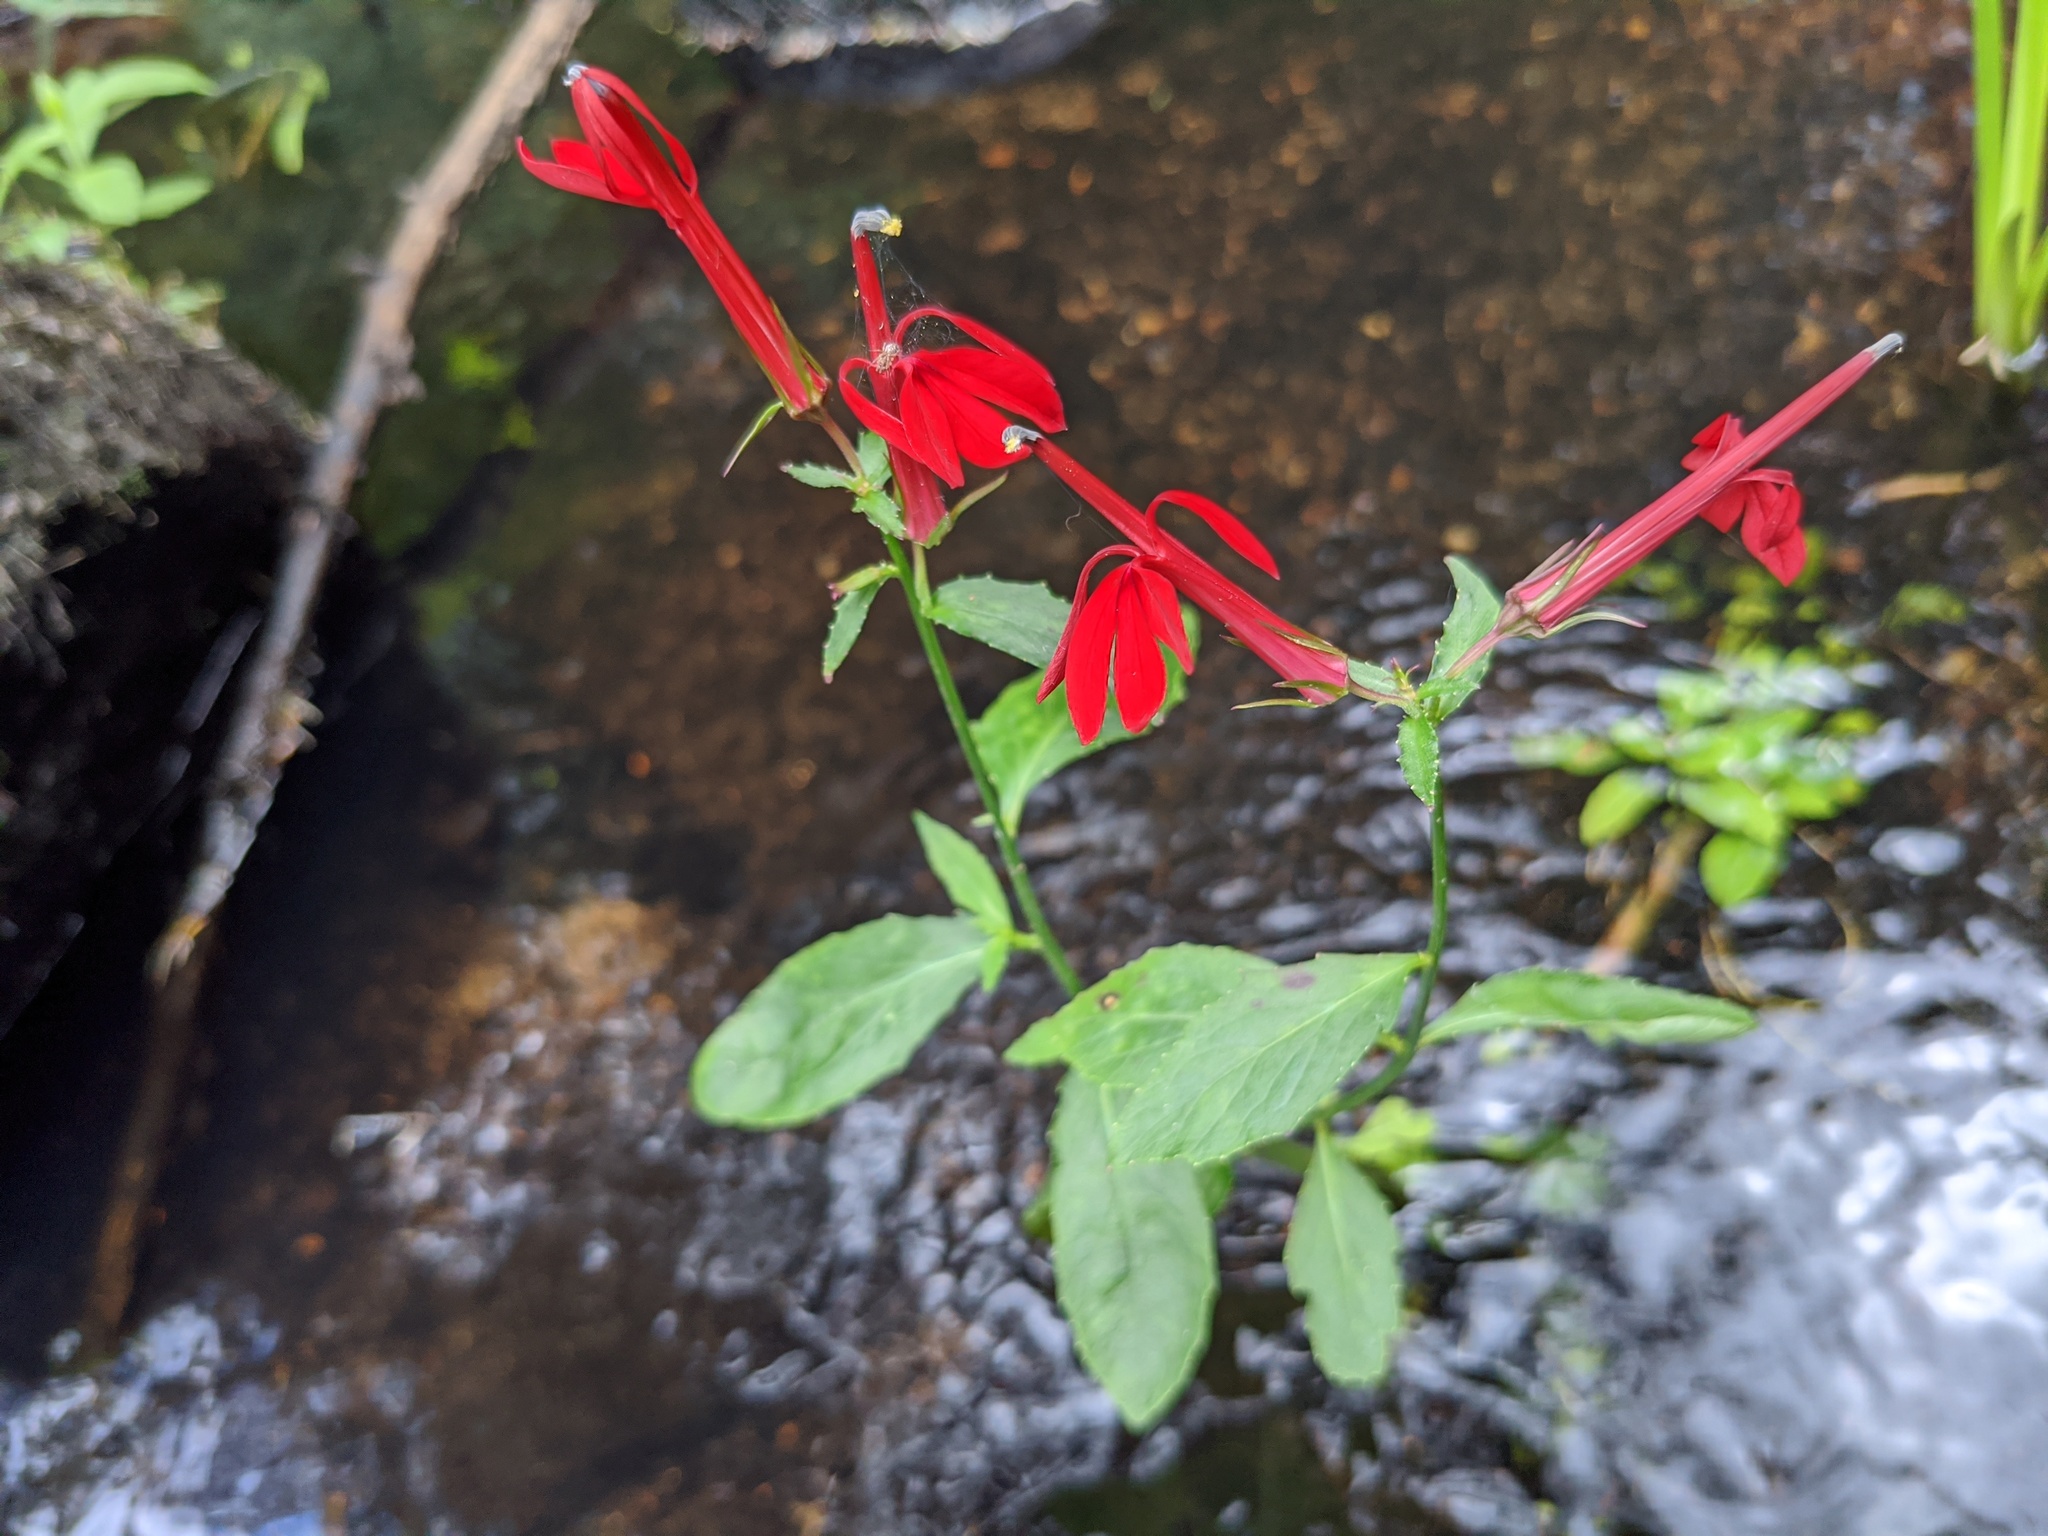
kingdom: Plantae
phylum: Tracheophyta
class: Magnoliopsida
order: Asterales
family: Campanulaceae
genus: Lobelia
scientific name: Lobelia cardinalis
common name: Cardinal flower
